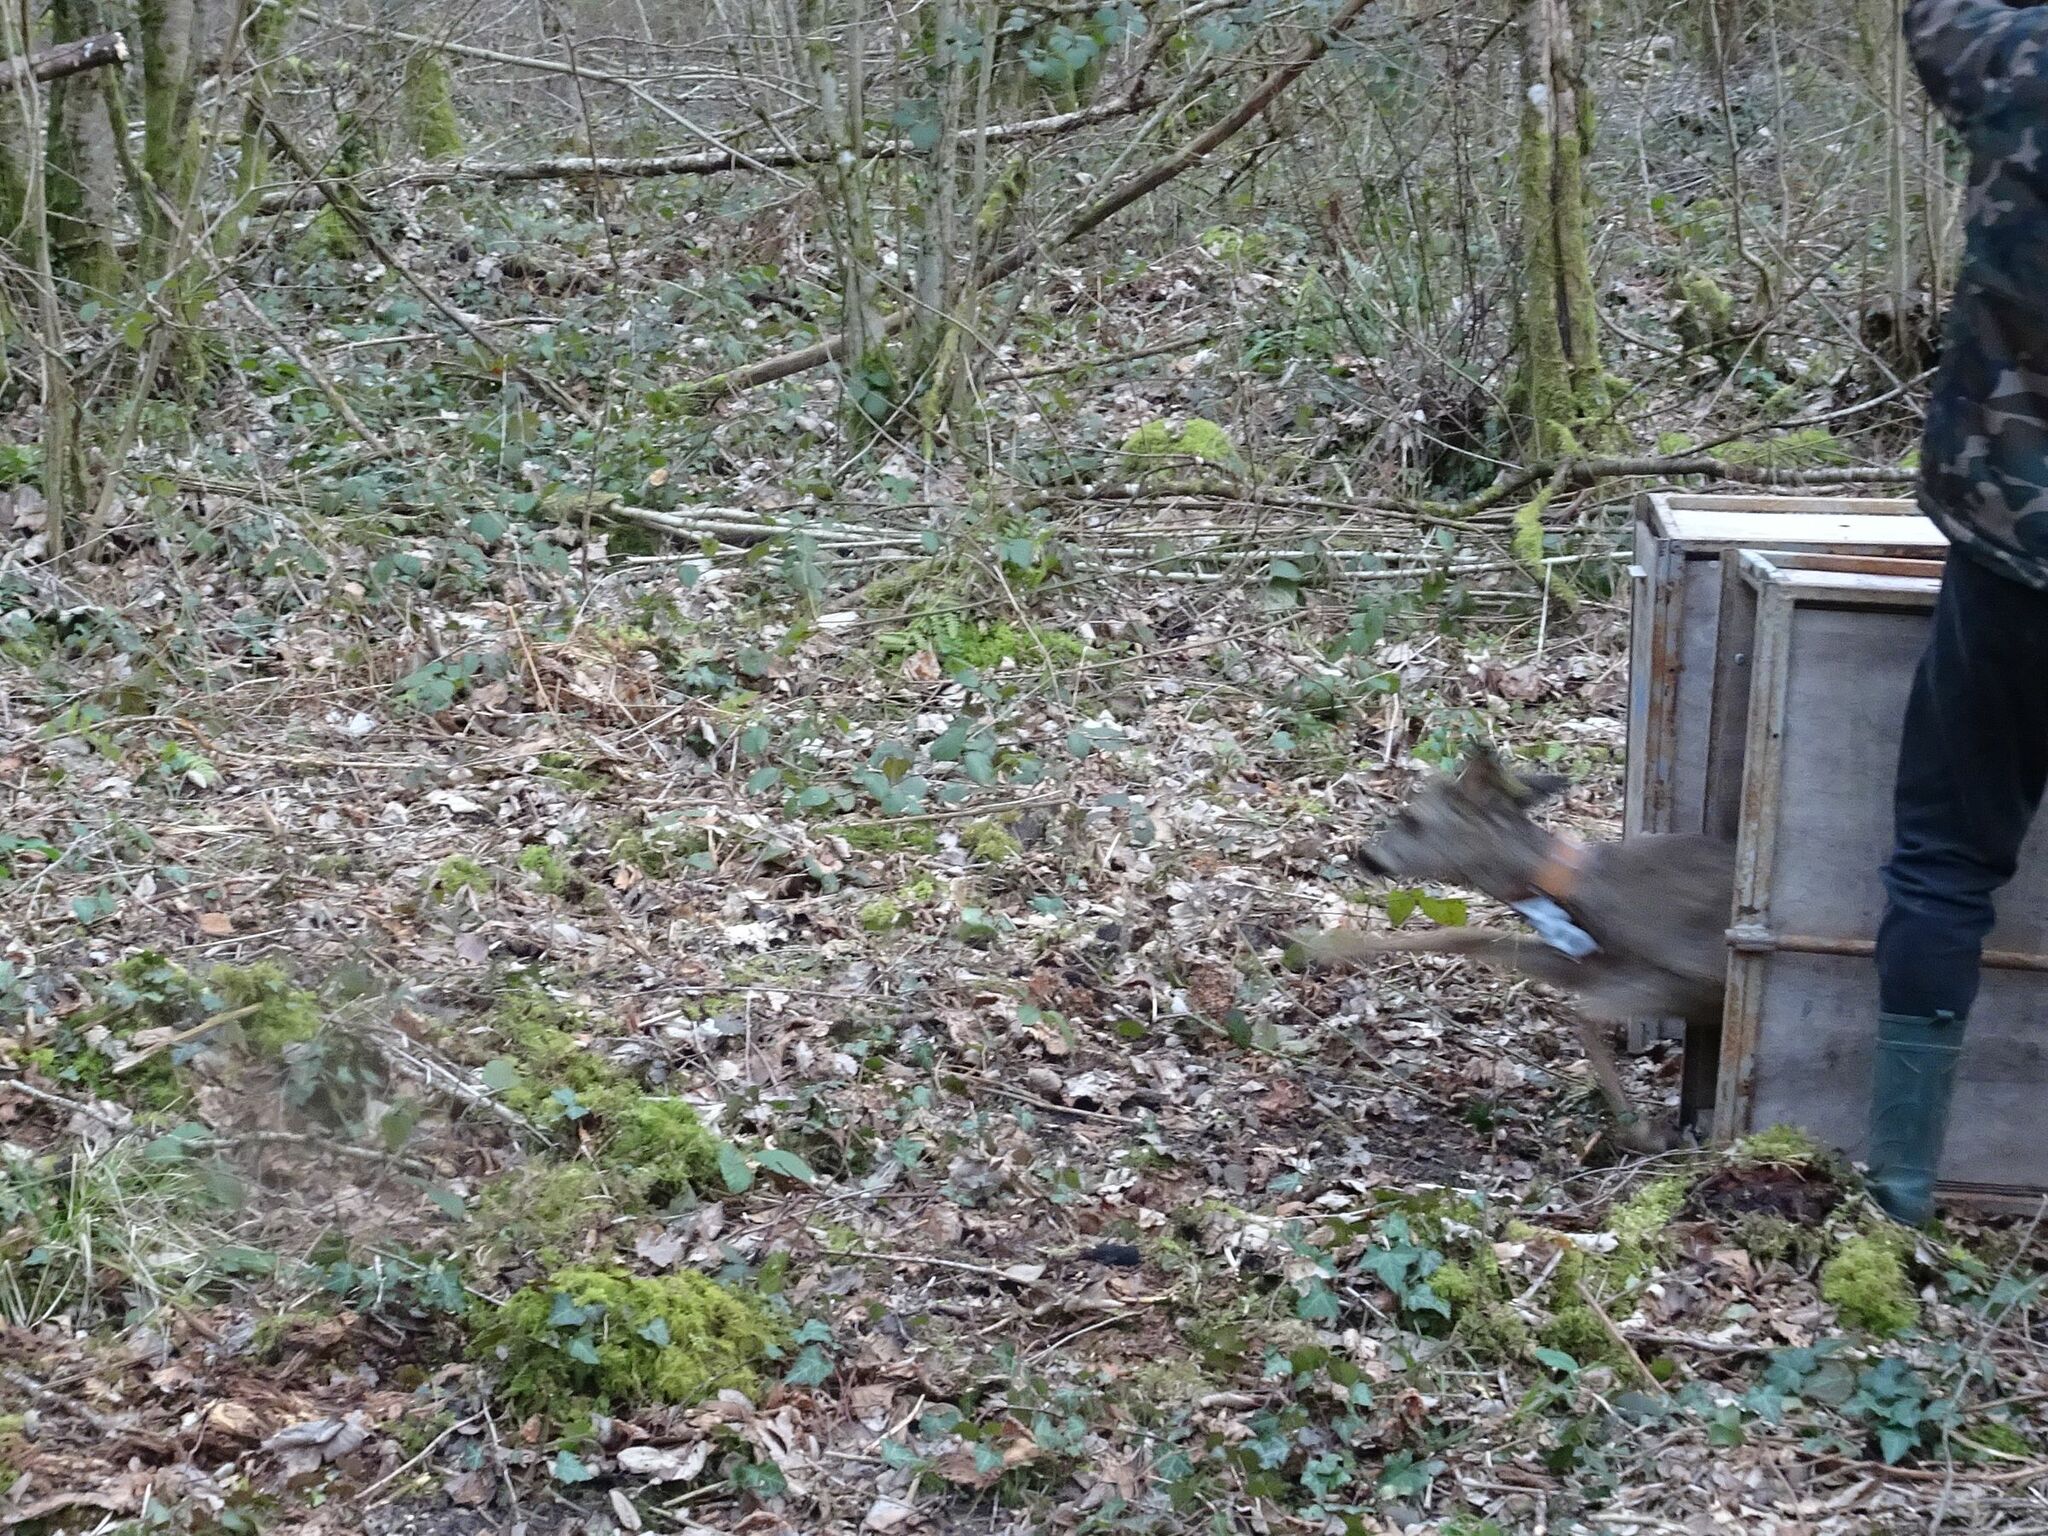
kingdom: Animalia
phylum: Chordata
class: Mammalia
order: Artiodactyla
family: Cervidae
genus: Capreolus
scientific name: Capreolus capreolus
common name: Western roe deer
